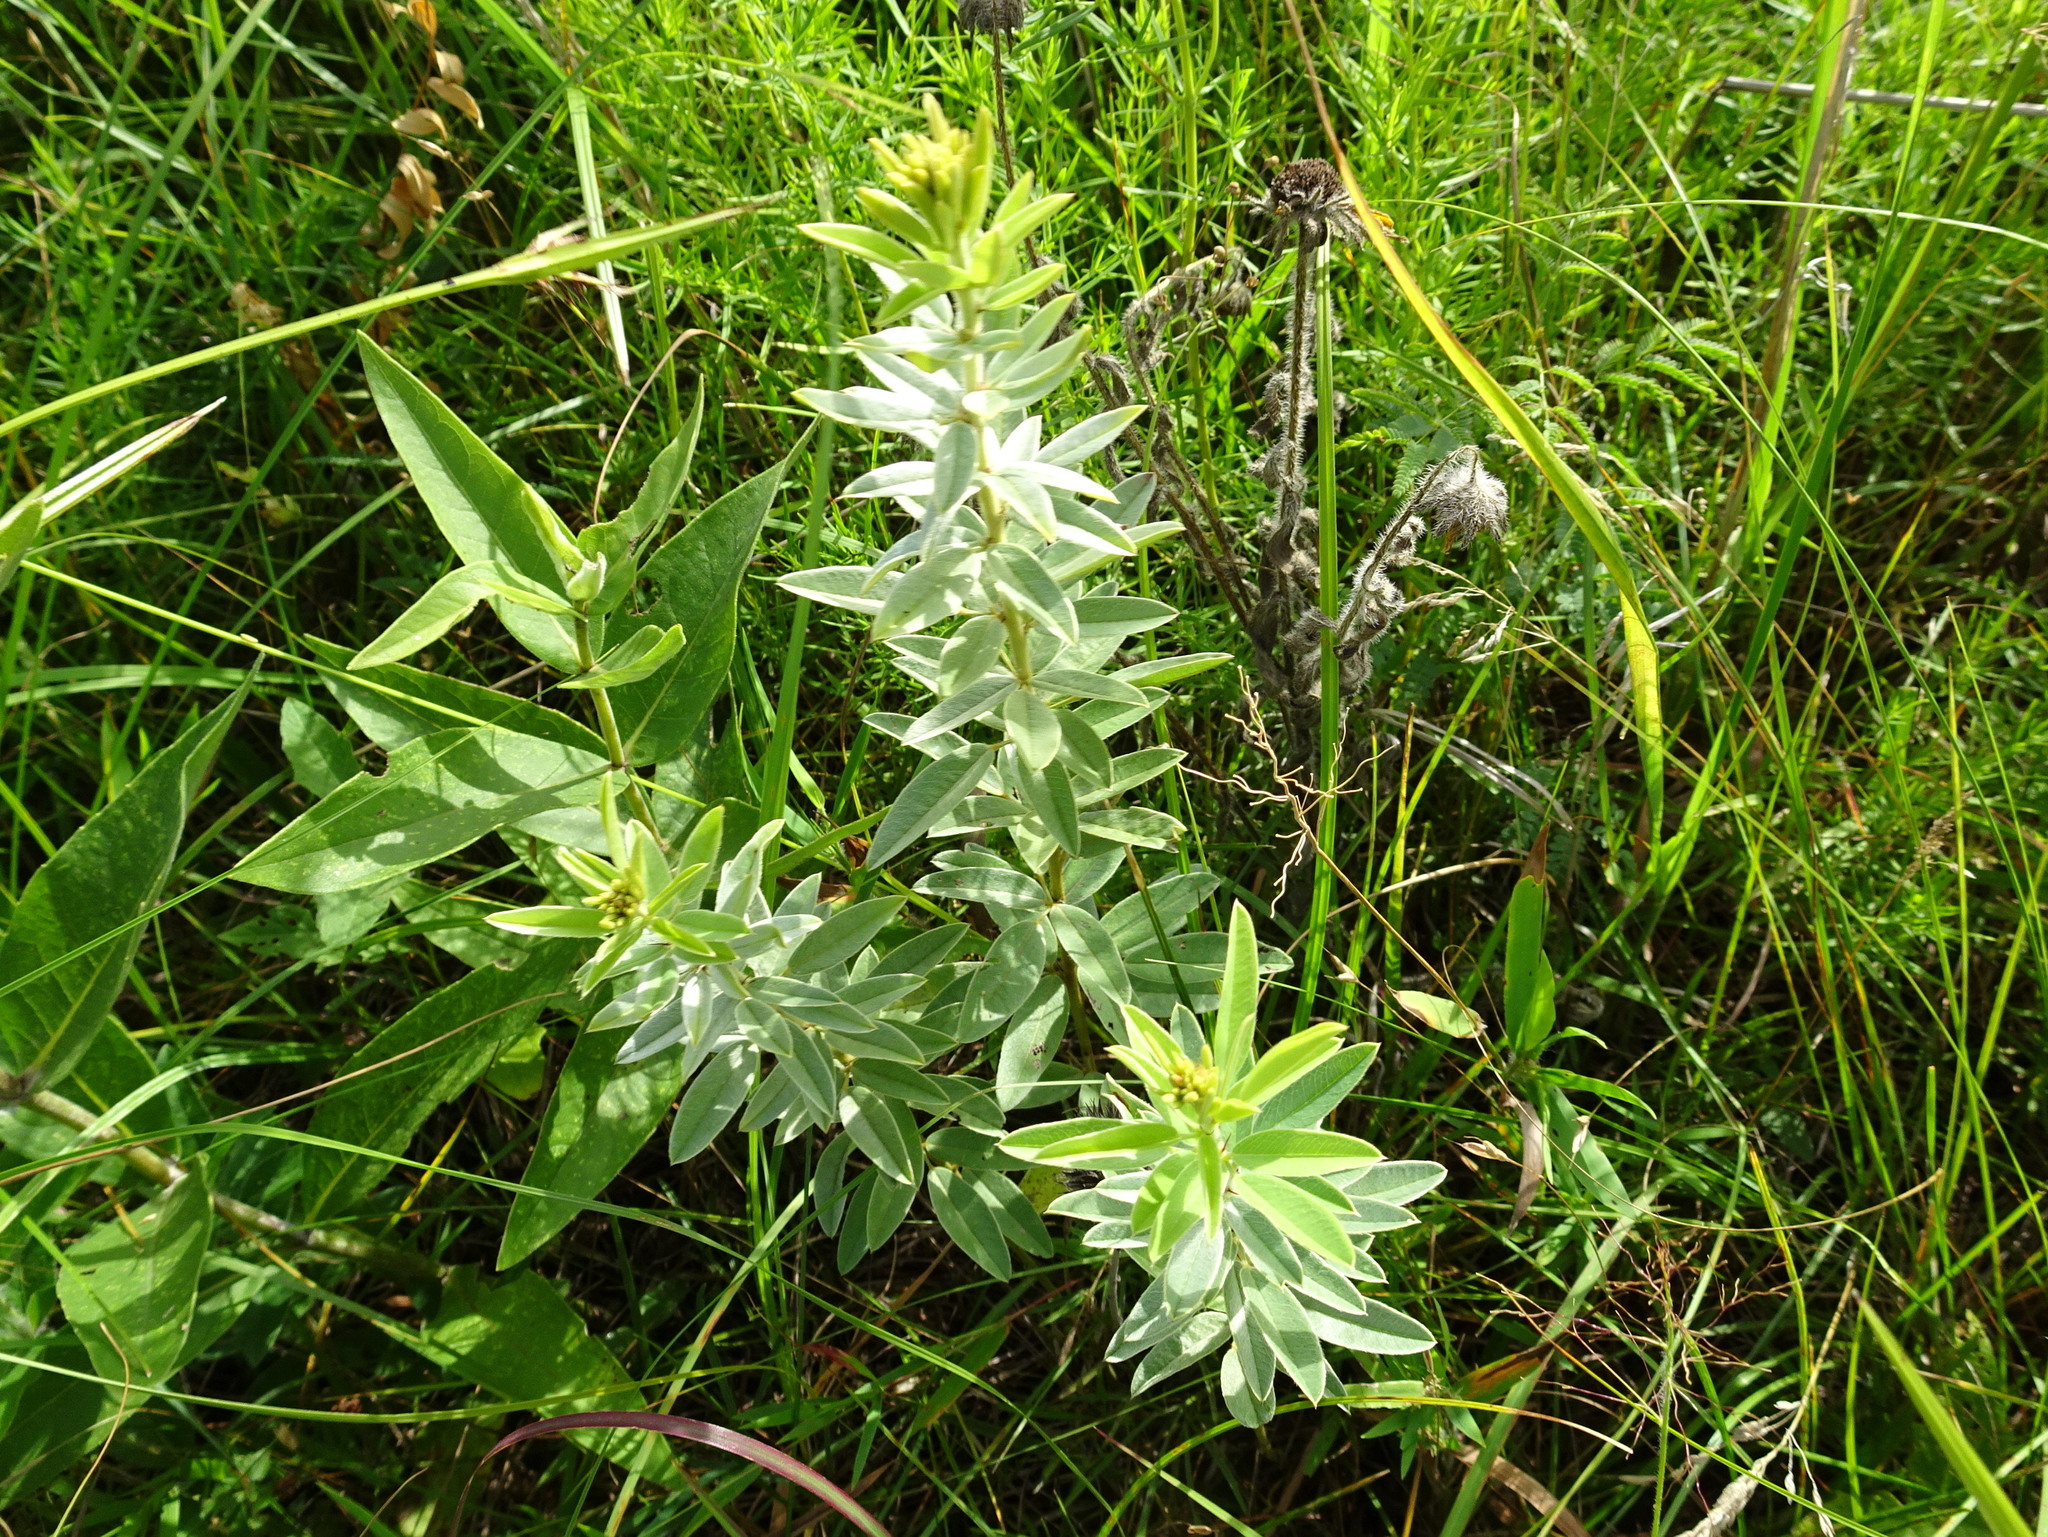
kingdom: Plantae
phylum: Tracheophyta
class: Magnoliopsida
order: Fabales
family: Fabaceae
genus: Lespedeza
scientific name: Lespedeza capitata
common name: Dusty clover
